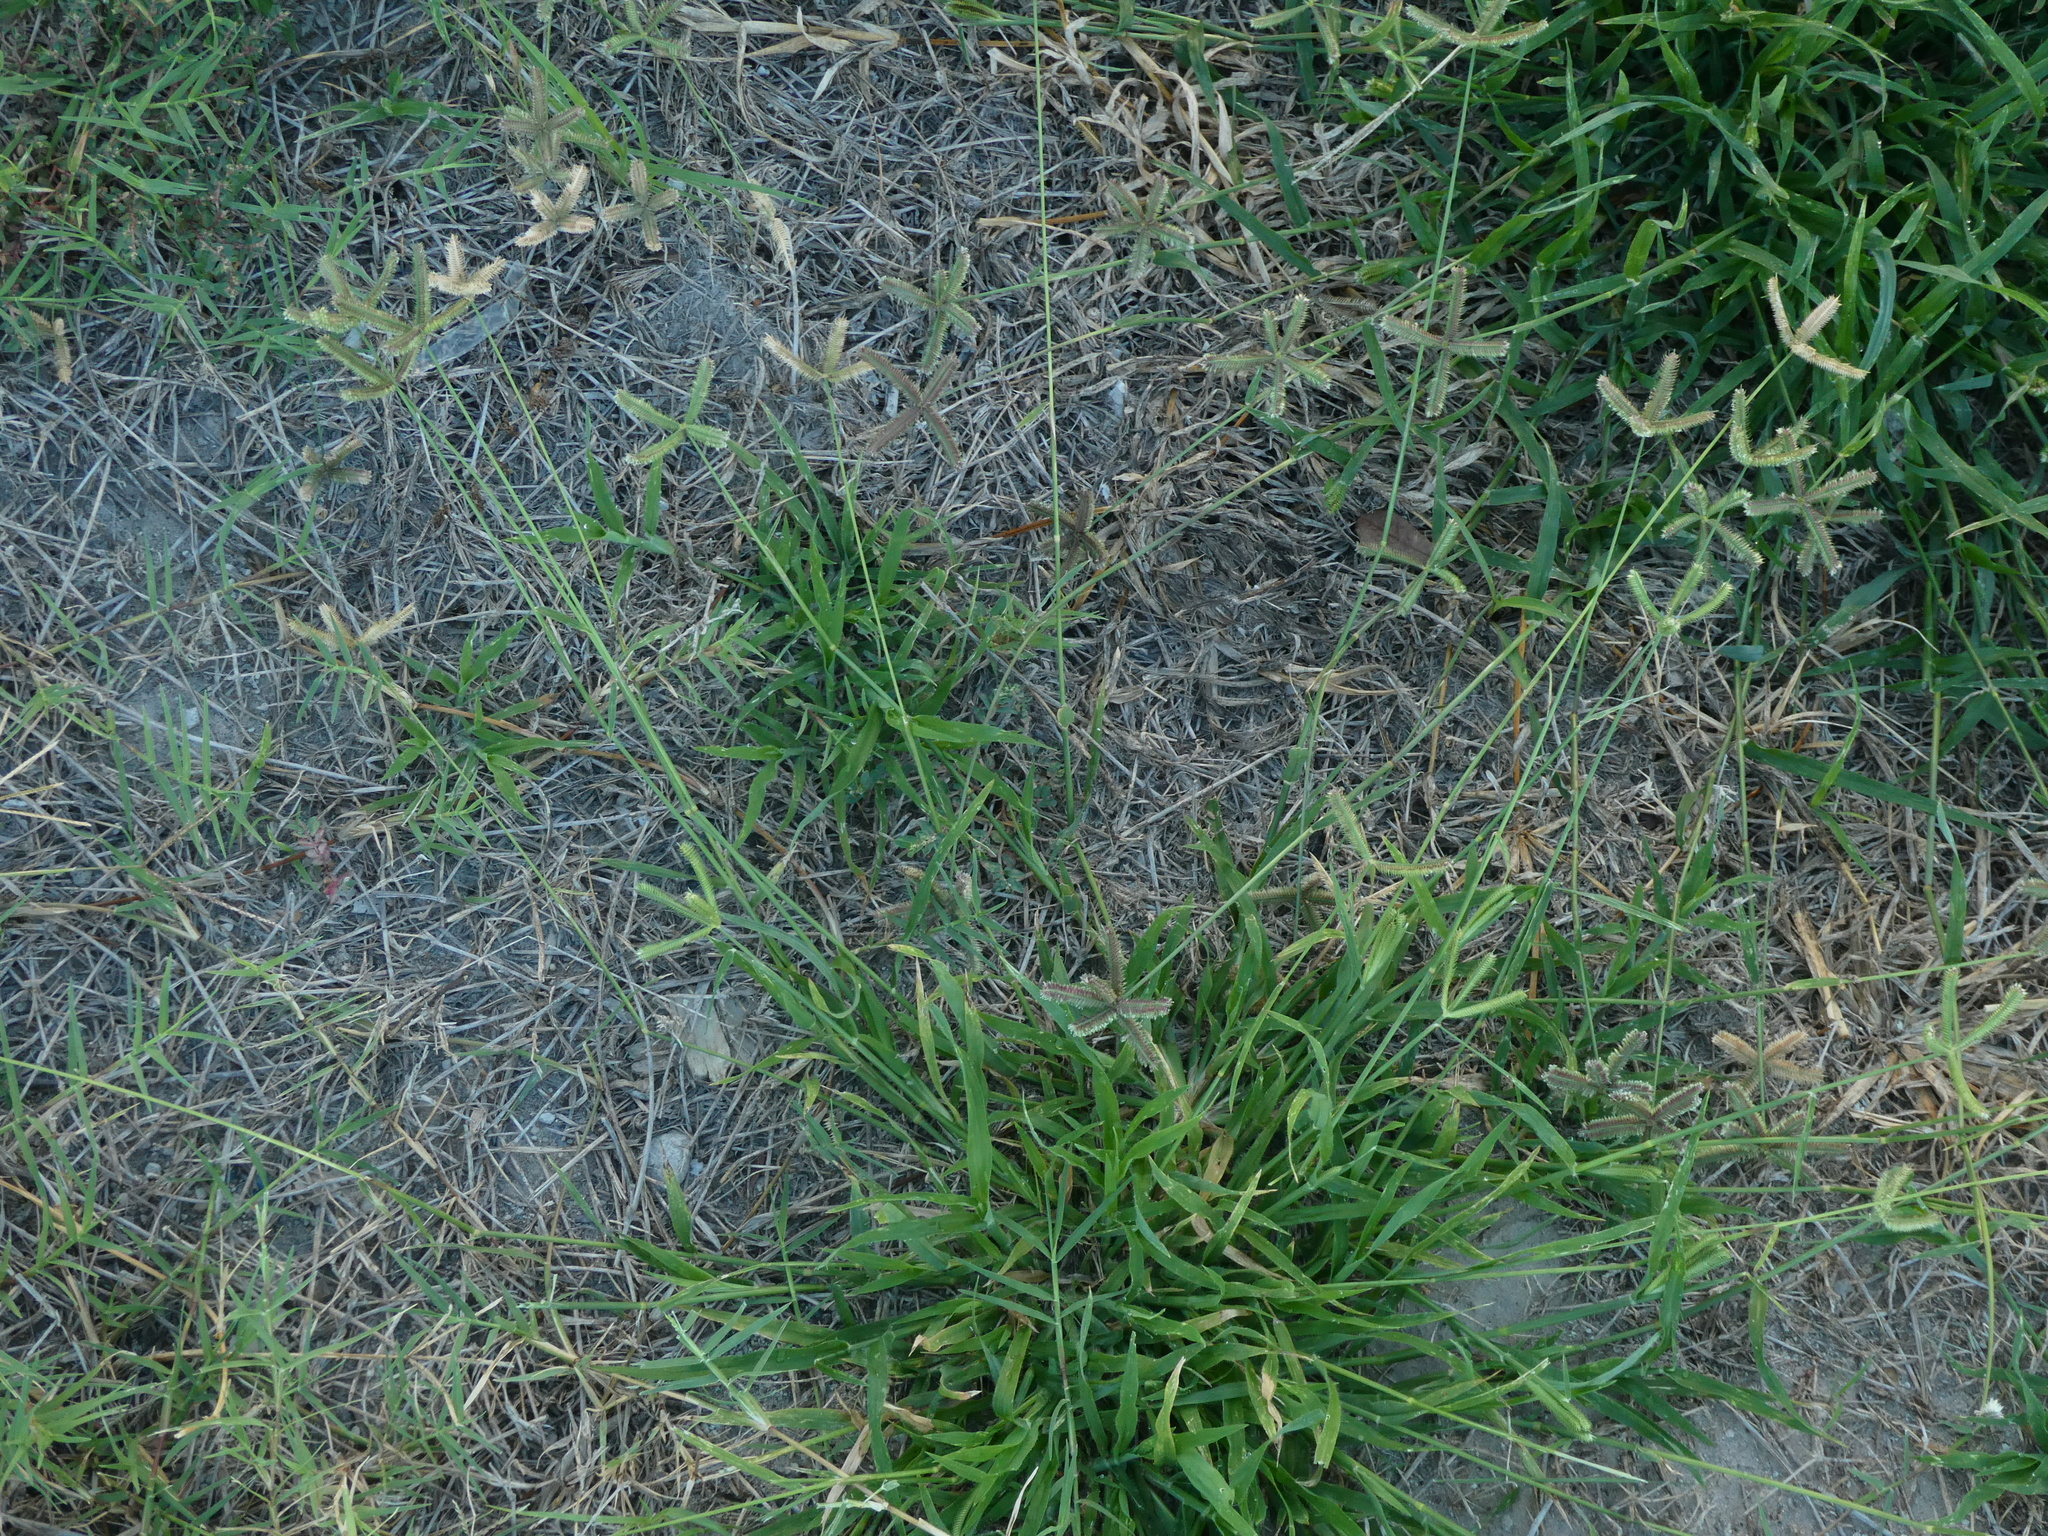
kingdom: Plantae
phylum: Tracheophyta
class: Liliopsida
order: Poales
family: Poaceae
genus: Dactyloctenium
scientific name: Dactyloctenium aegyptium
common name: Egyptian grass
